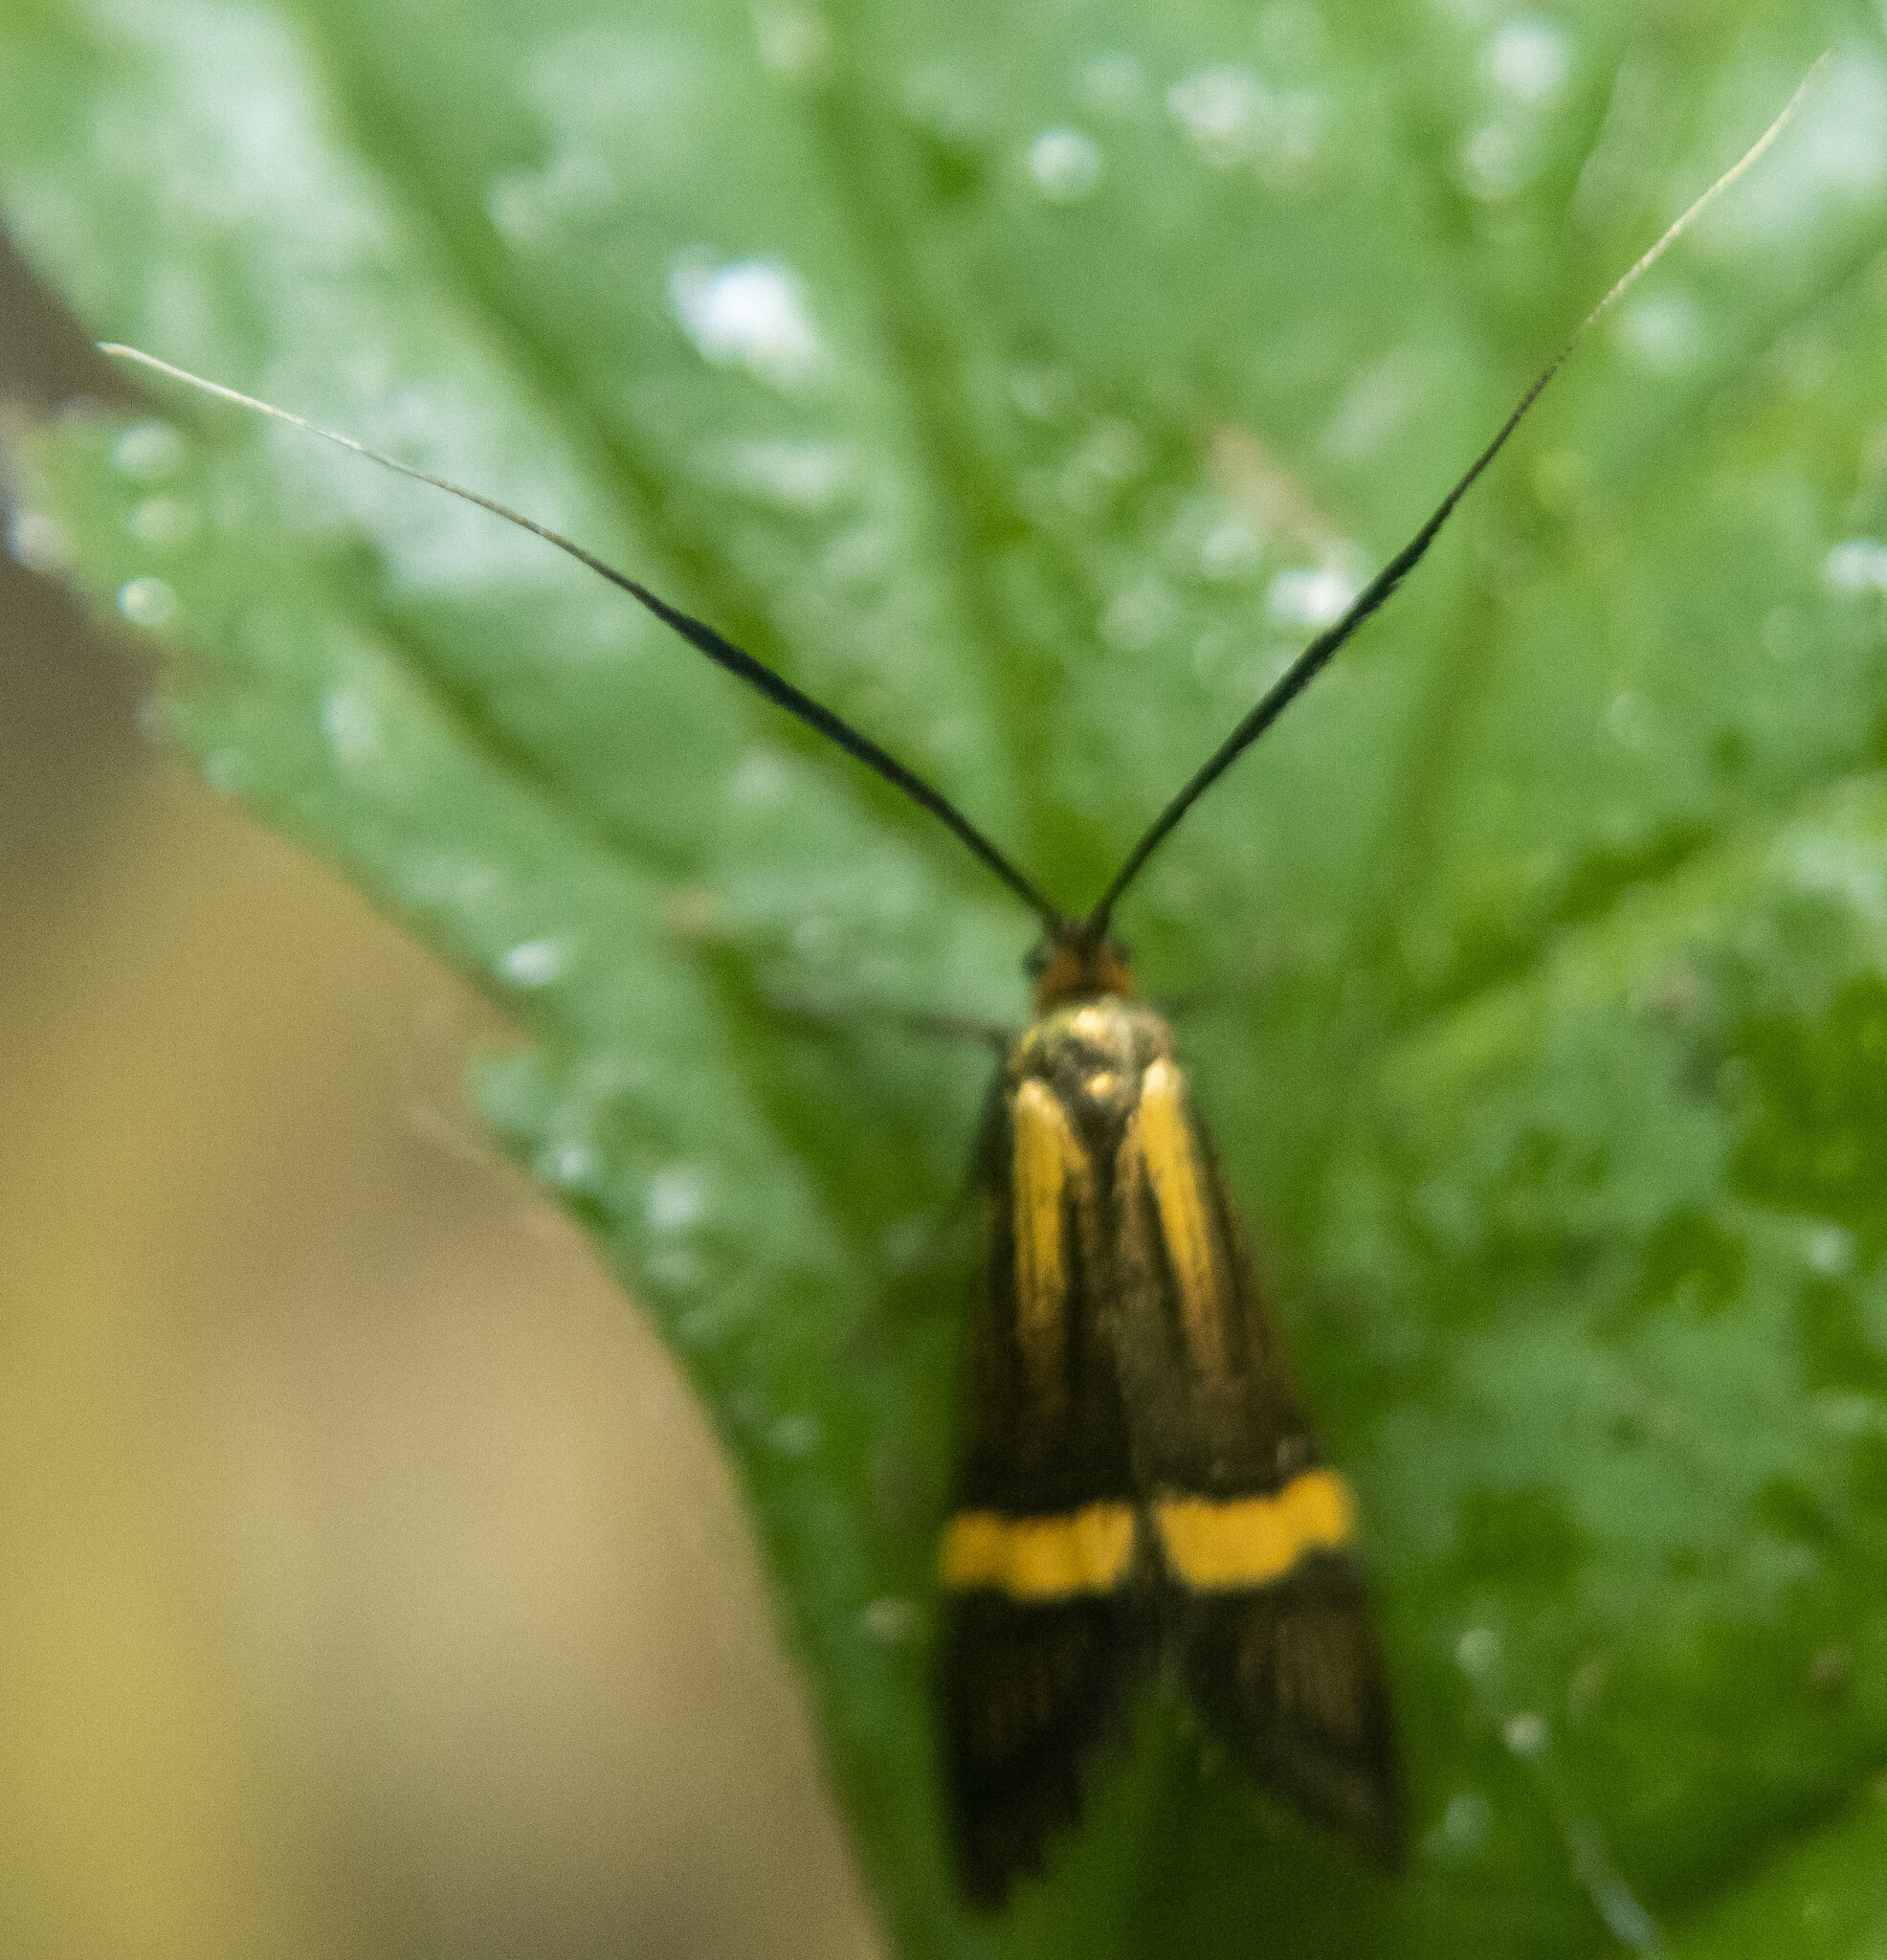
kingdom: Animalia
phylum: Arthropoda
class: Insecta
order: Lepidoptera
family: Adelidae
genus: Nemophora
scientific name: Nemophora degeerella
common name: Yellow-barred long-horn
